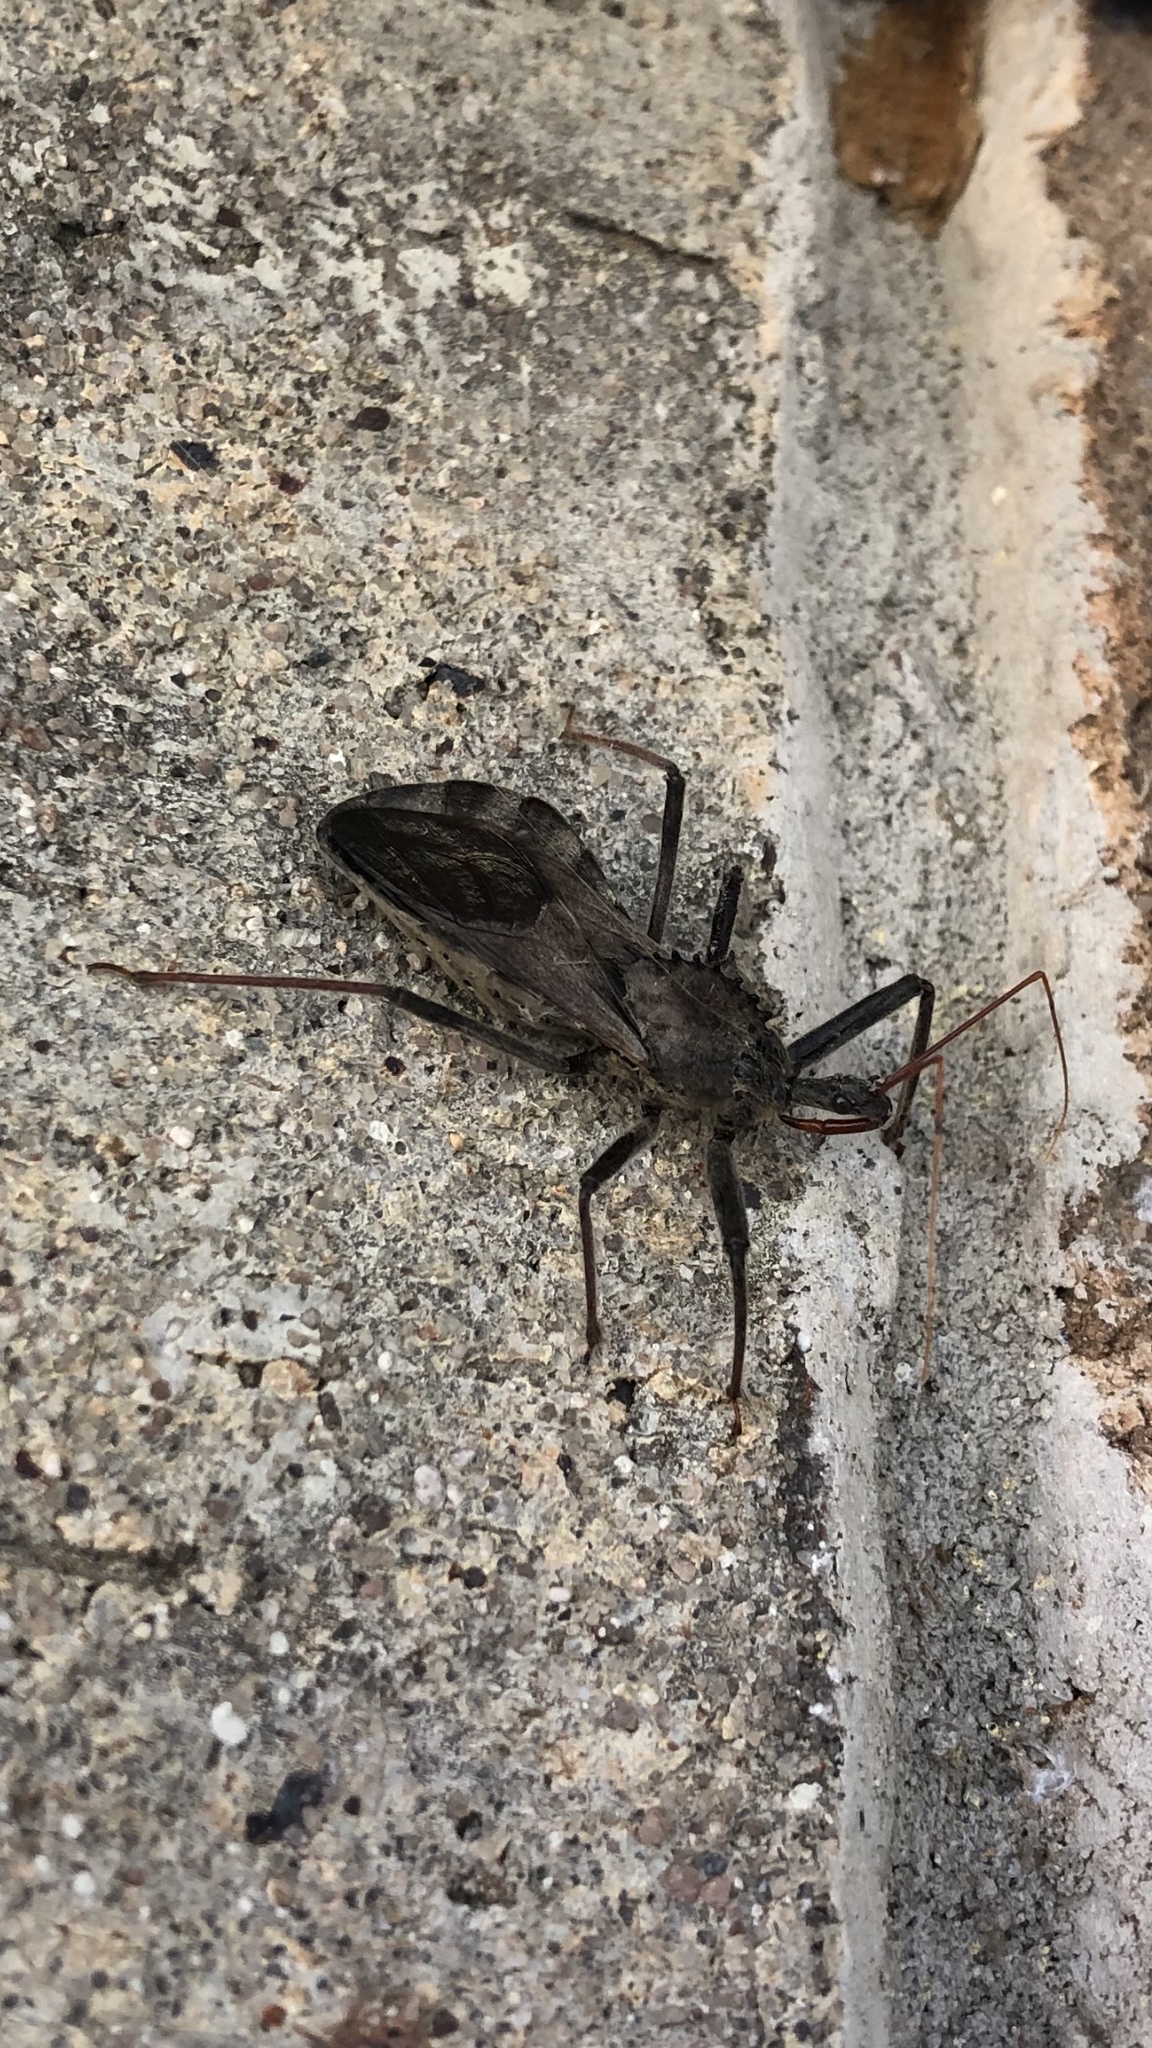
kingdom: Animalia
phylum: Arthropoda
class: Insecta
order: Hemiptera
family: Reduviidae
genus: Arilus
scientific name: Arilus cristatus
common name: North american wheel bug
